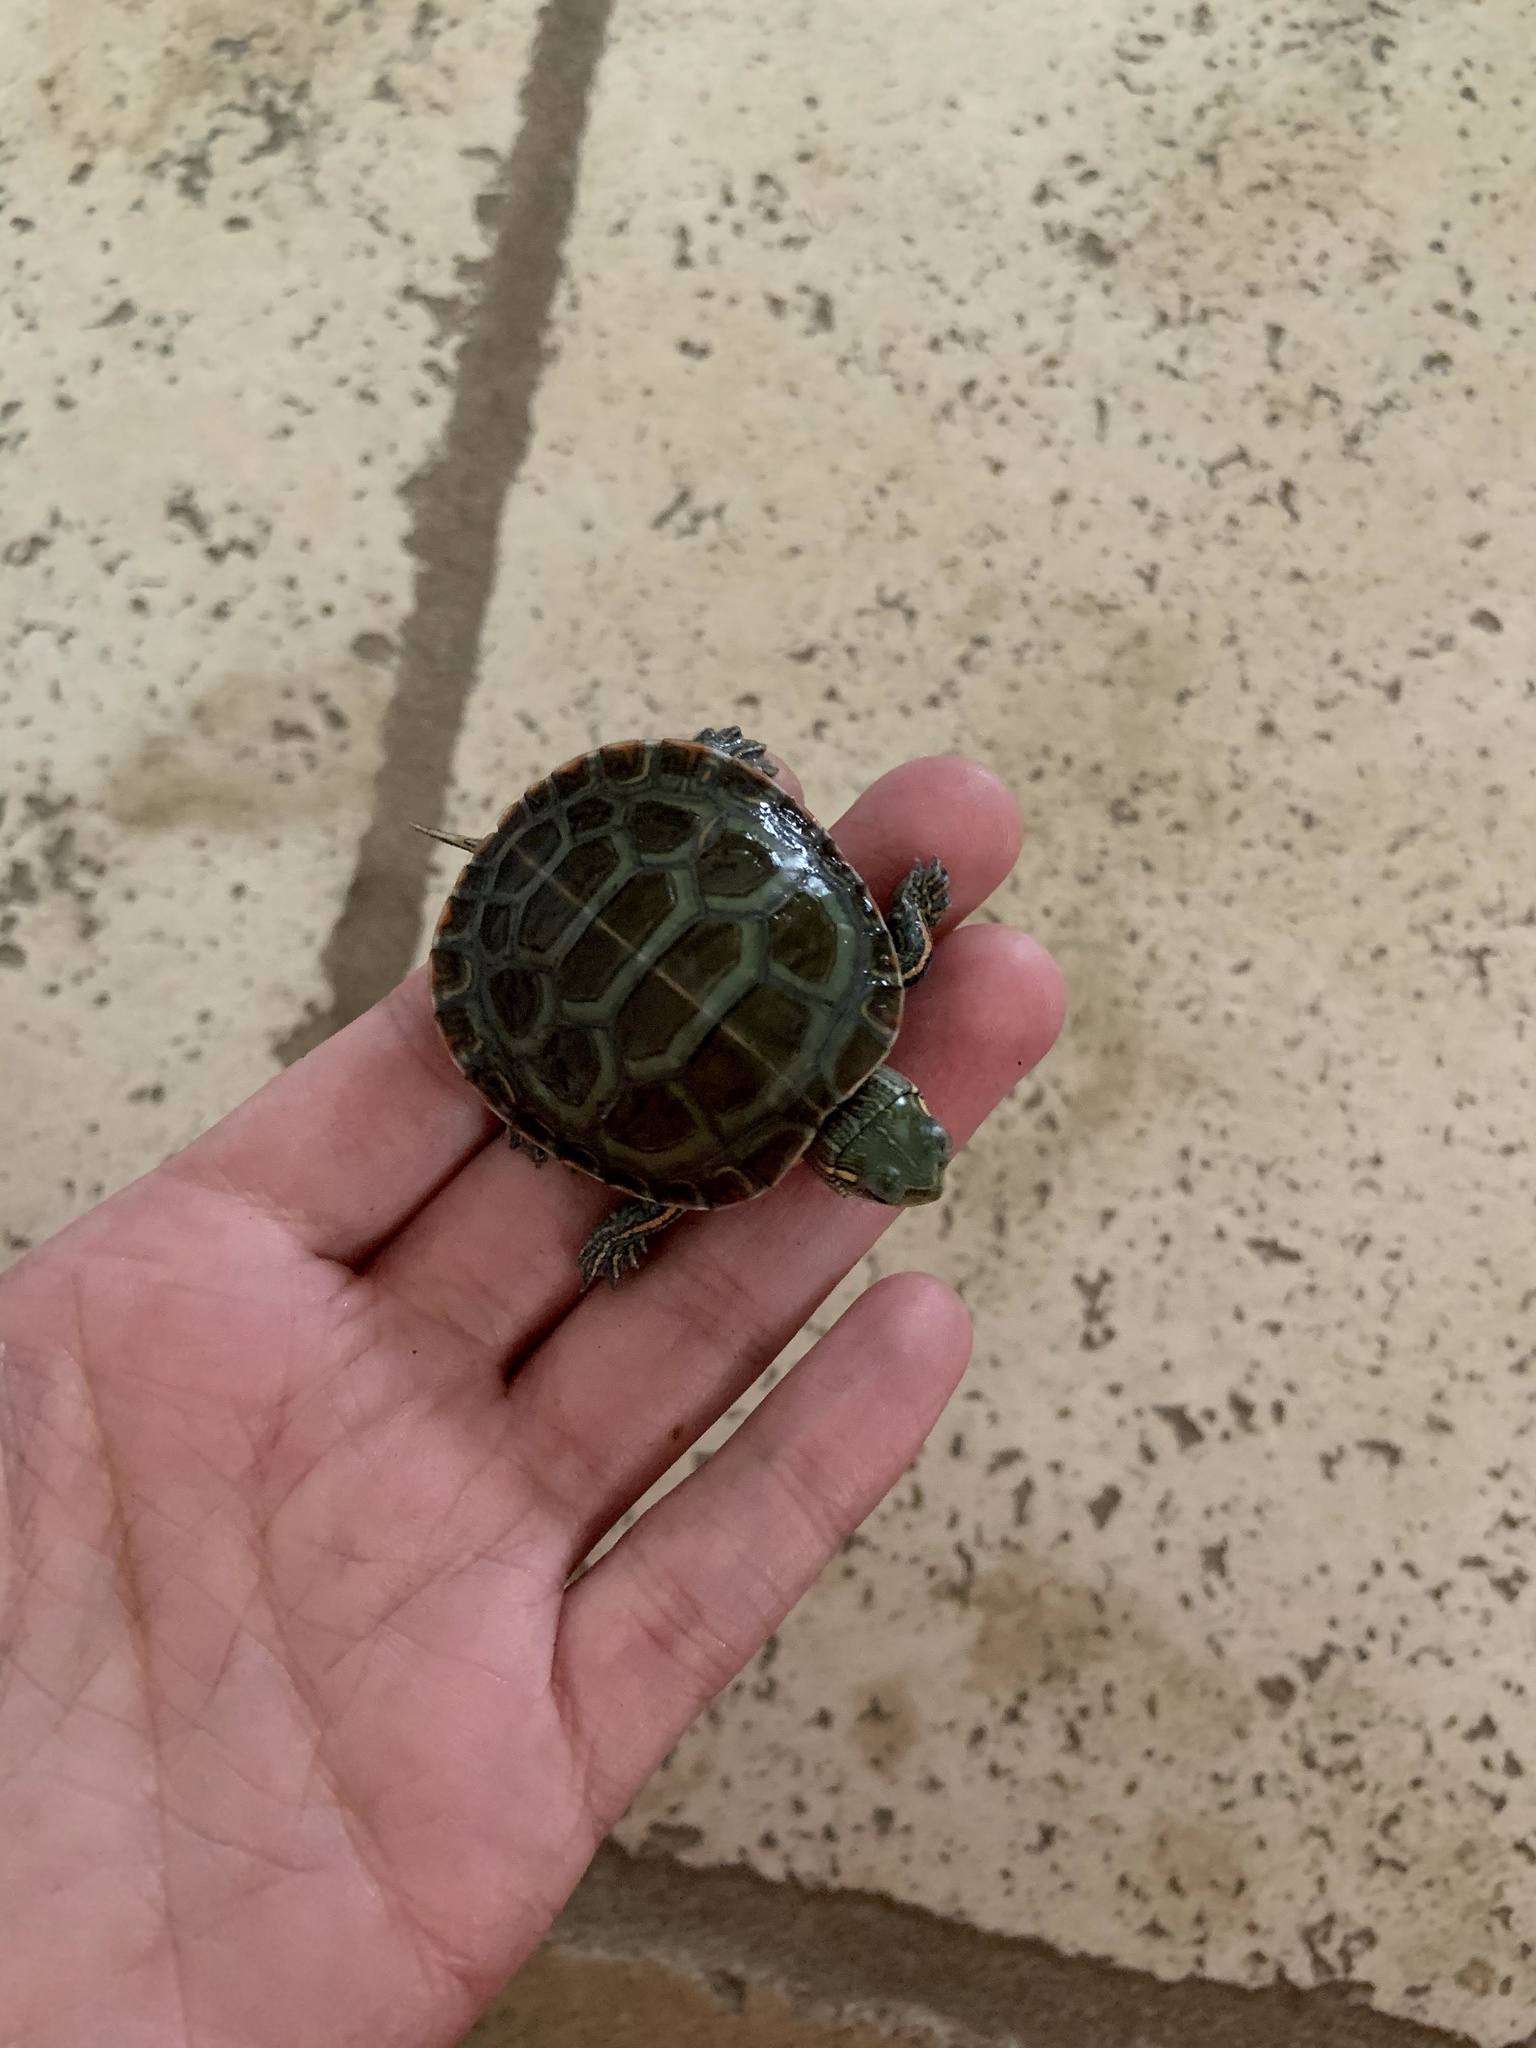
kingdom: Animalia
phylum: Chordata
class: Testudines
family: Emydidae
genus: Chrysemys
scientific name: Chrysemys picta
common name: Painted turtle
